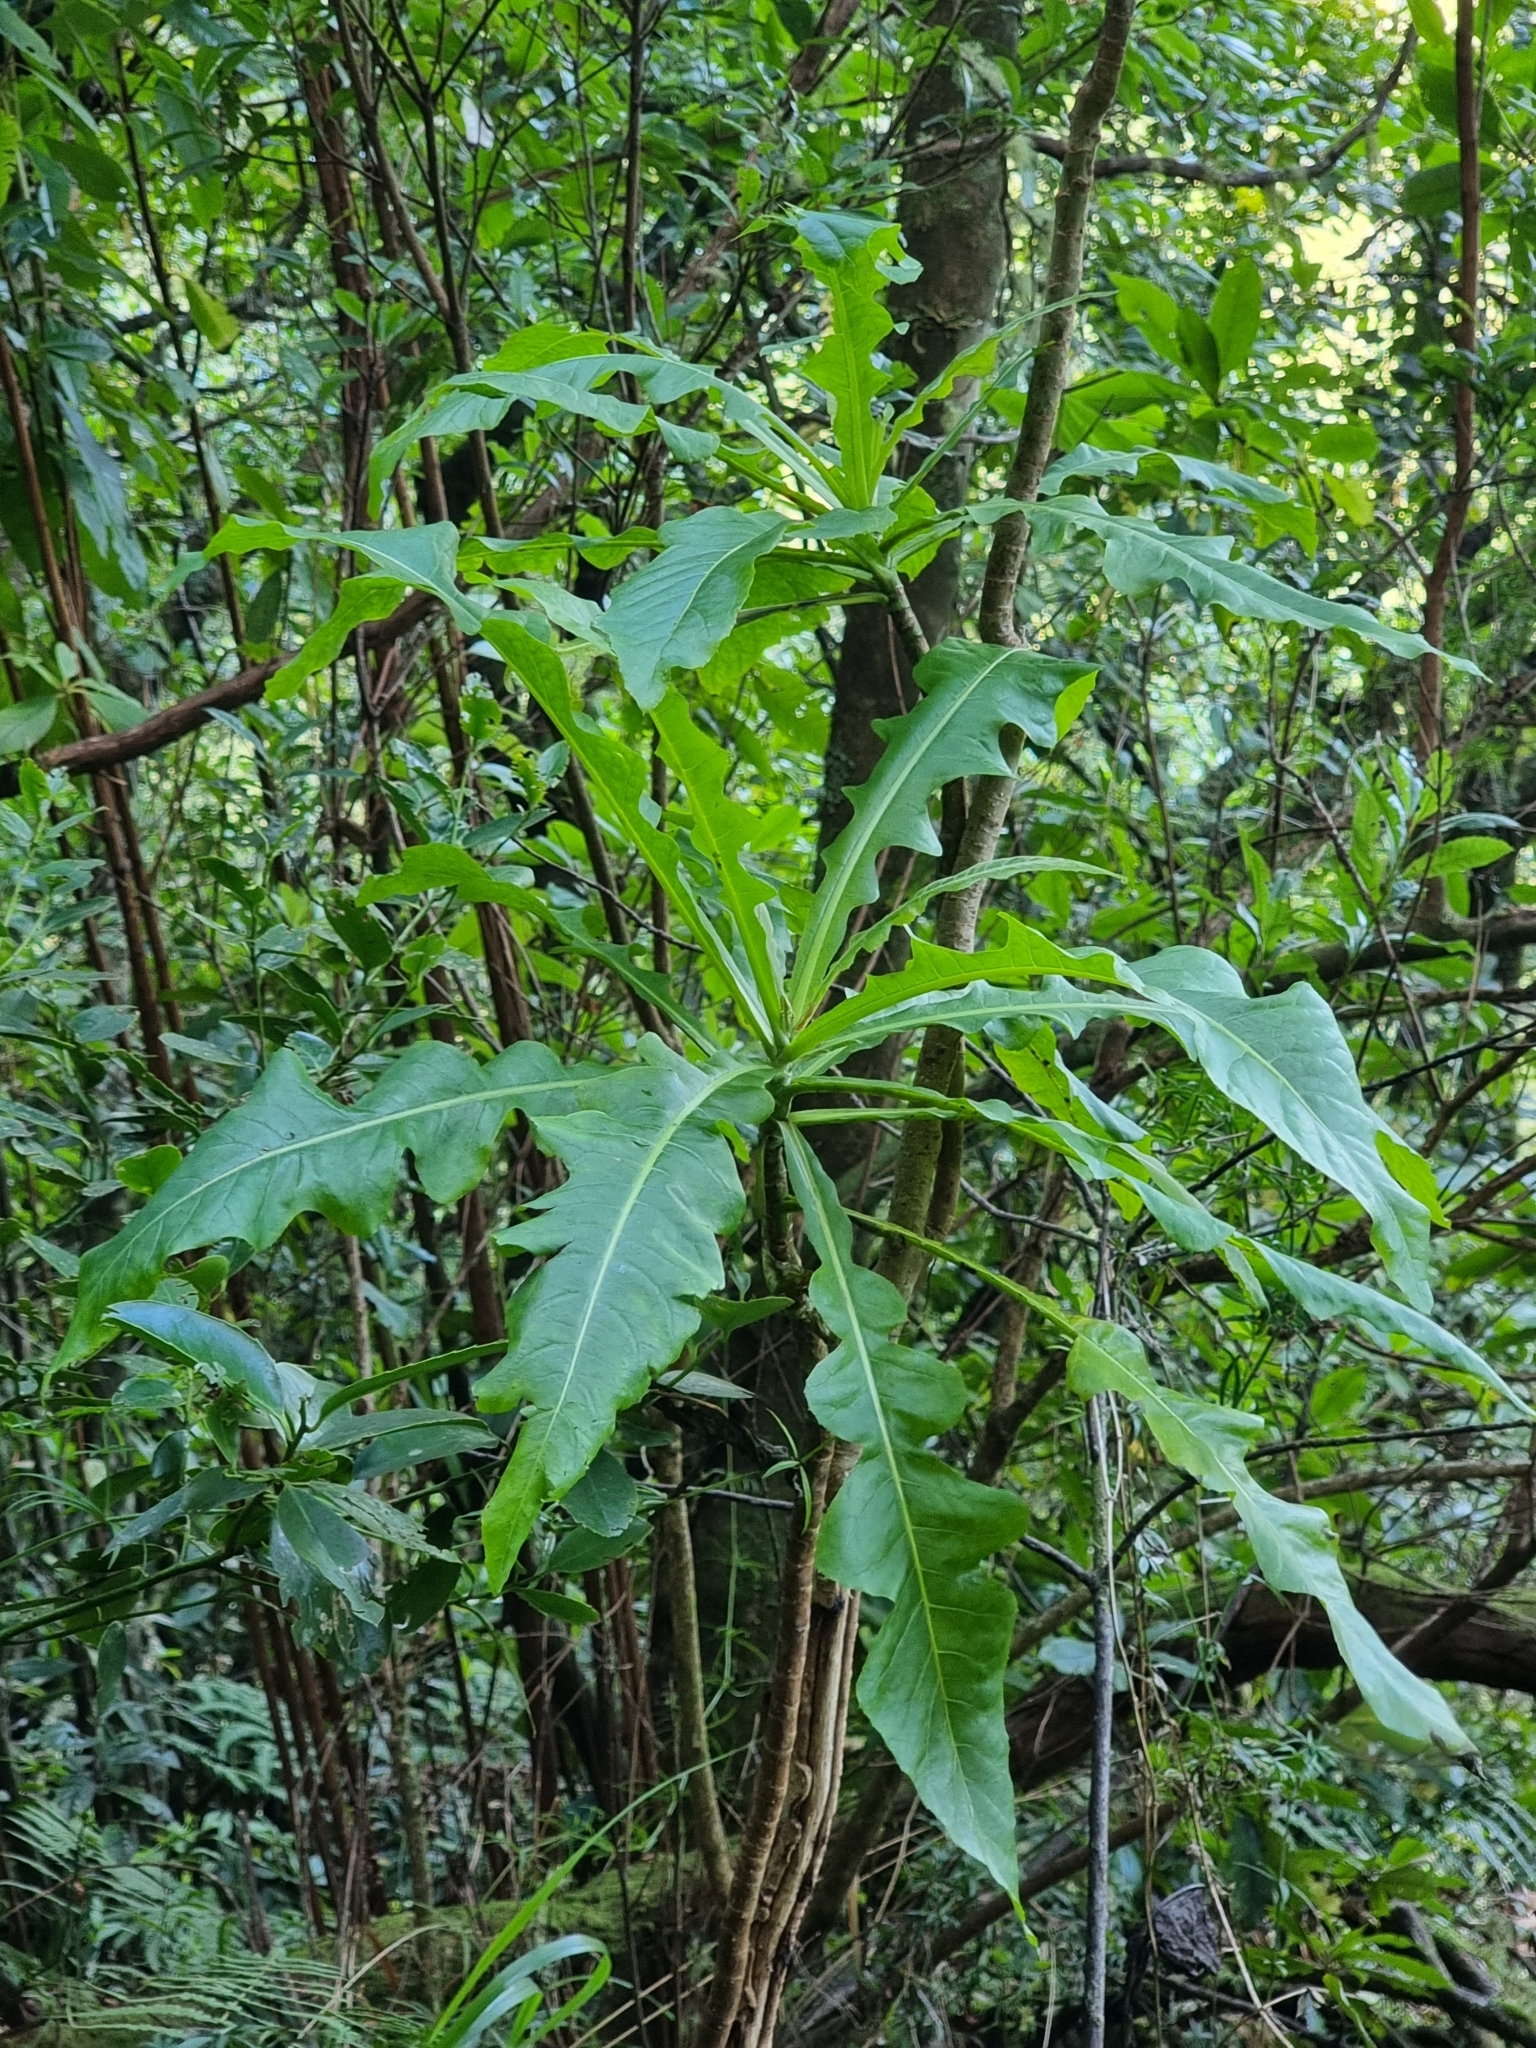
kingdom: Plantae
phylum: Tracheophyta
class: Magnoliopsida
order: Asterales
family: Asteraceae
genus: Sonchus
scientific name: Sonchus fruticosus
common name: Shrubby sow-thistle
